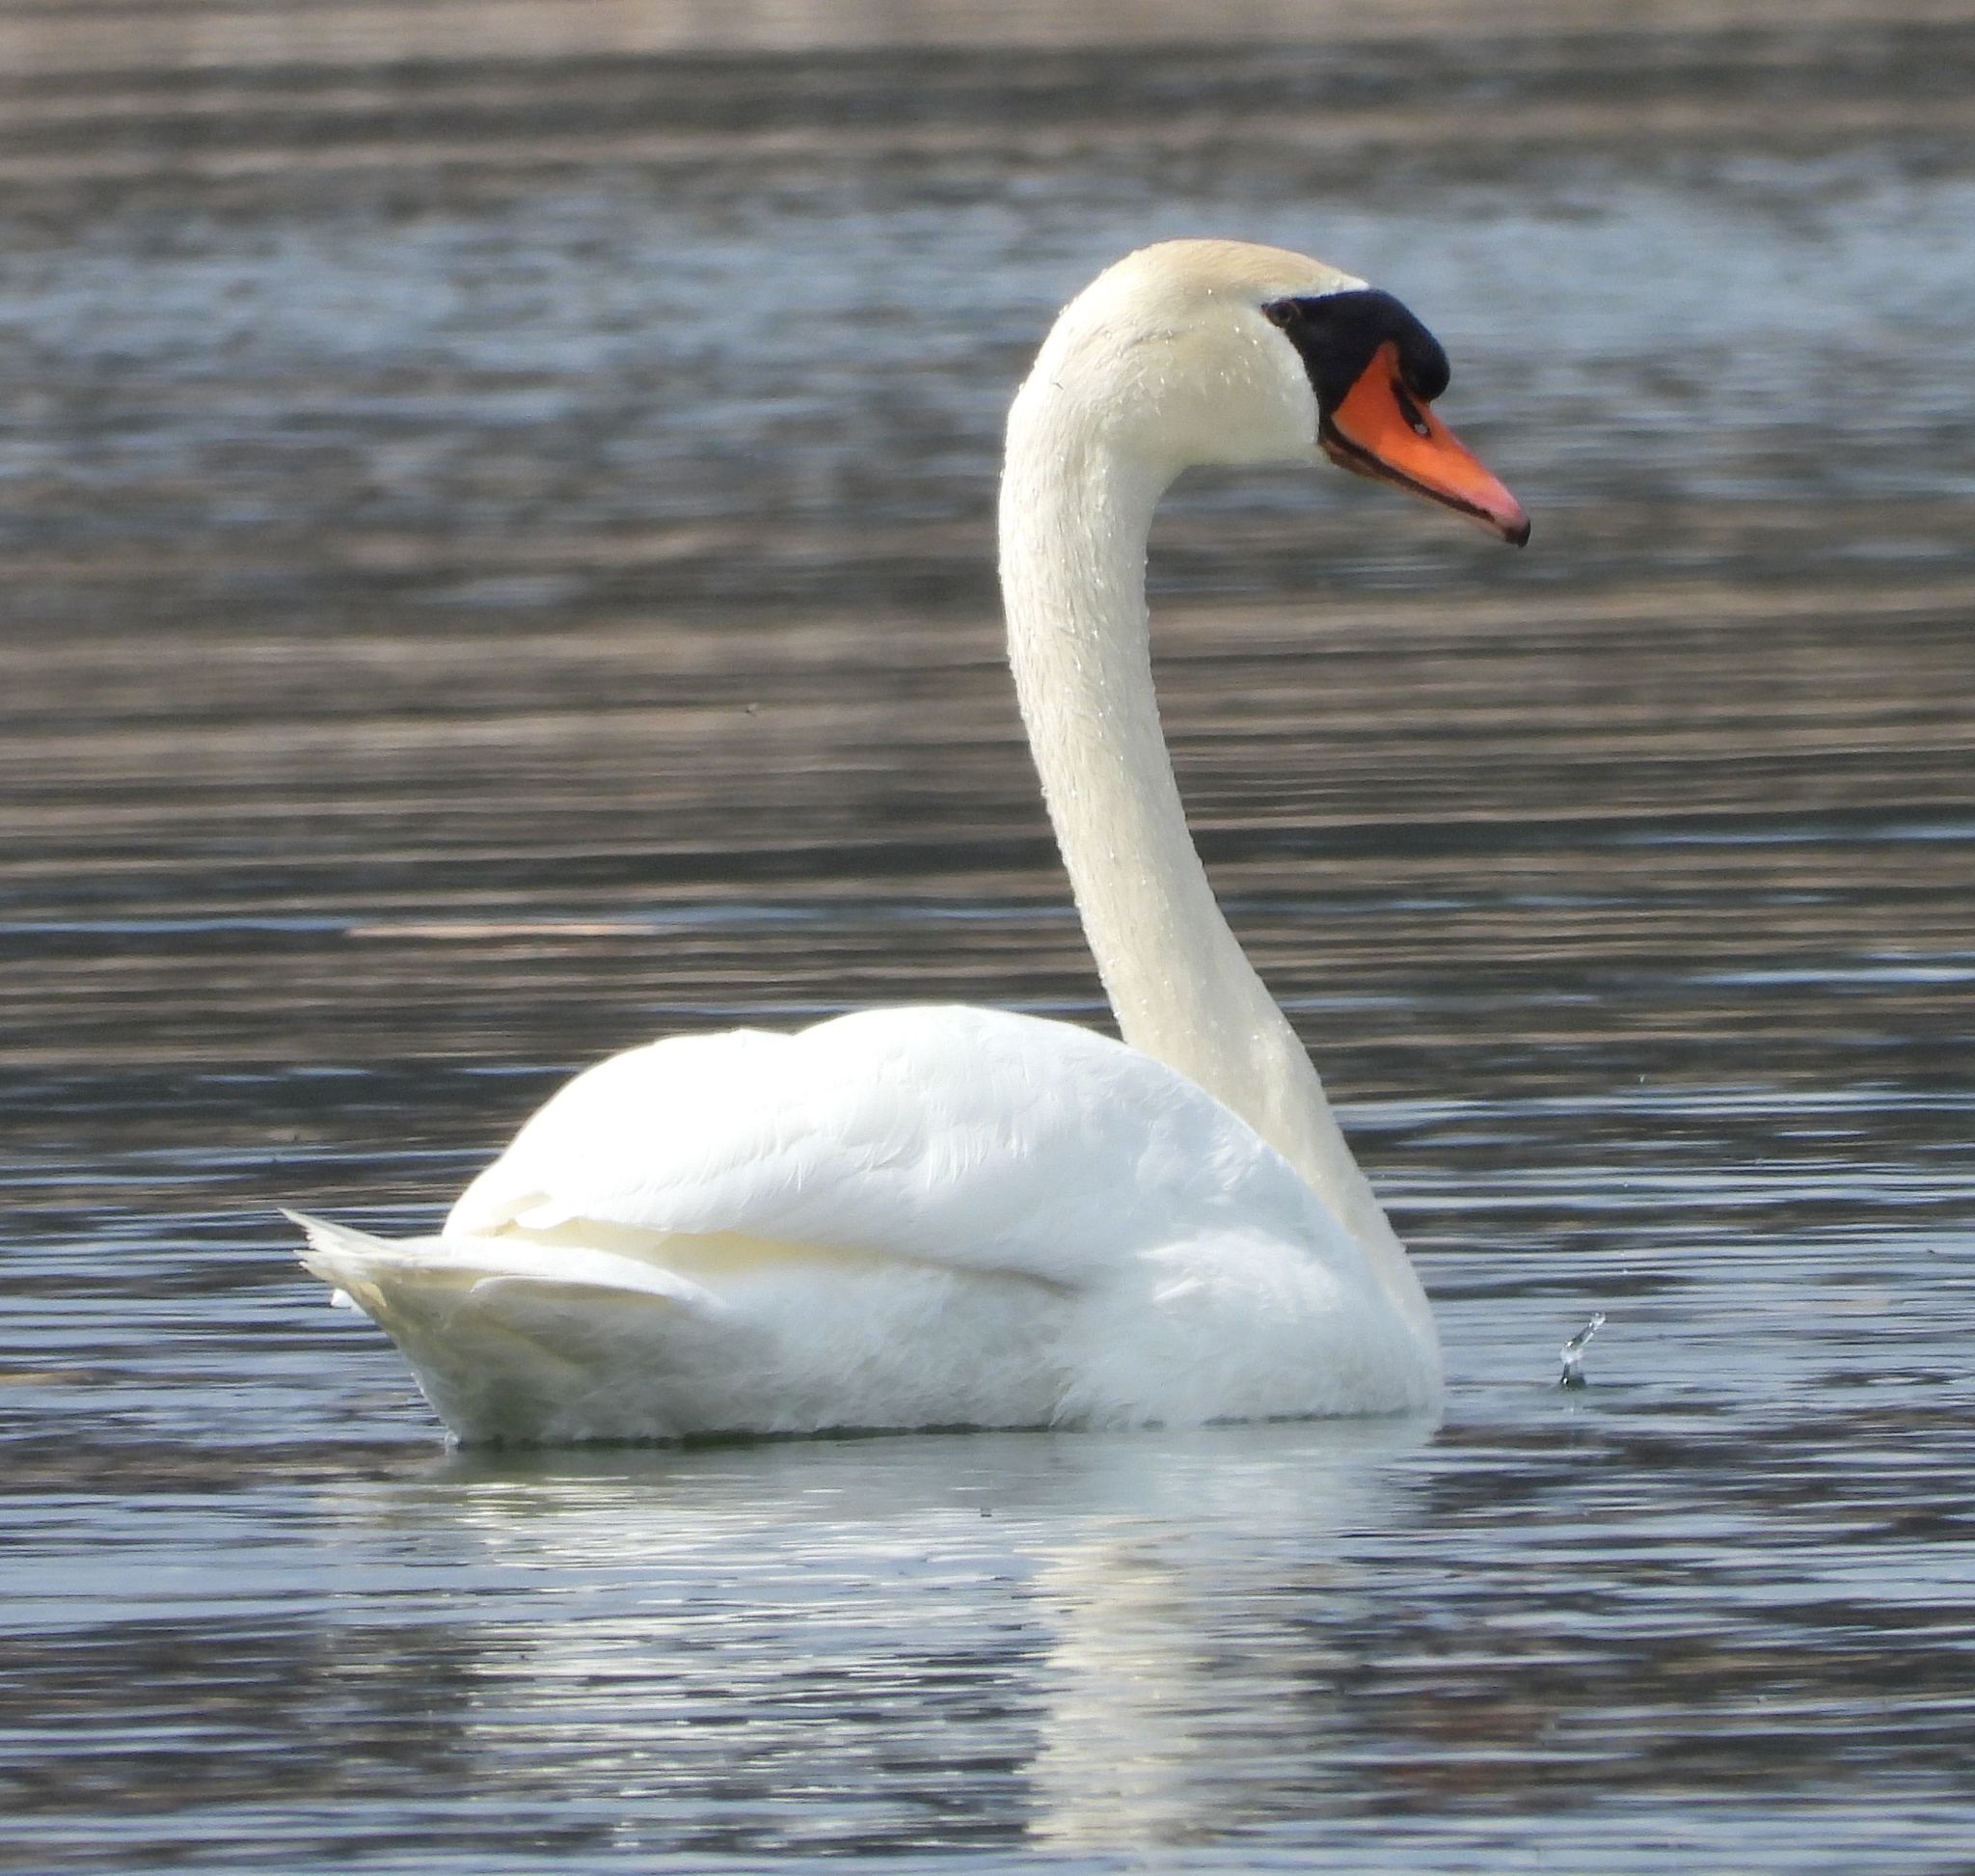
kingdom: Animalia
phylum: Chordata
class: Aves
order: Anseriformes
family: Anatidae
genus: Cygnus
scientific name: Cygnus olor
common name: Mute swan
